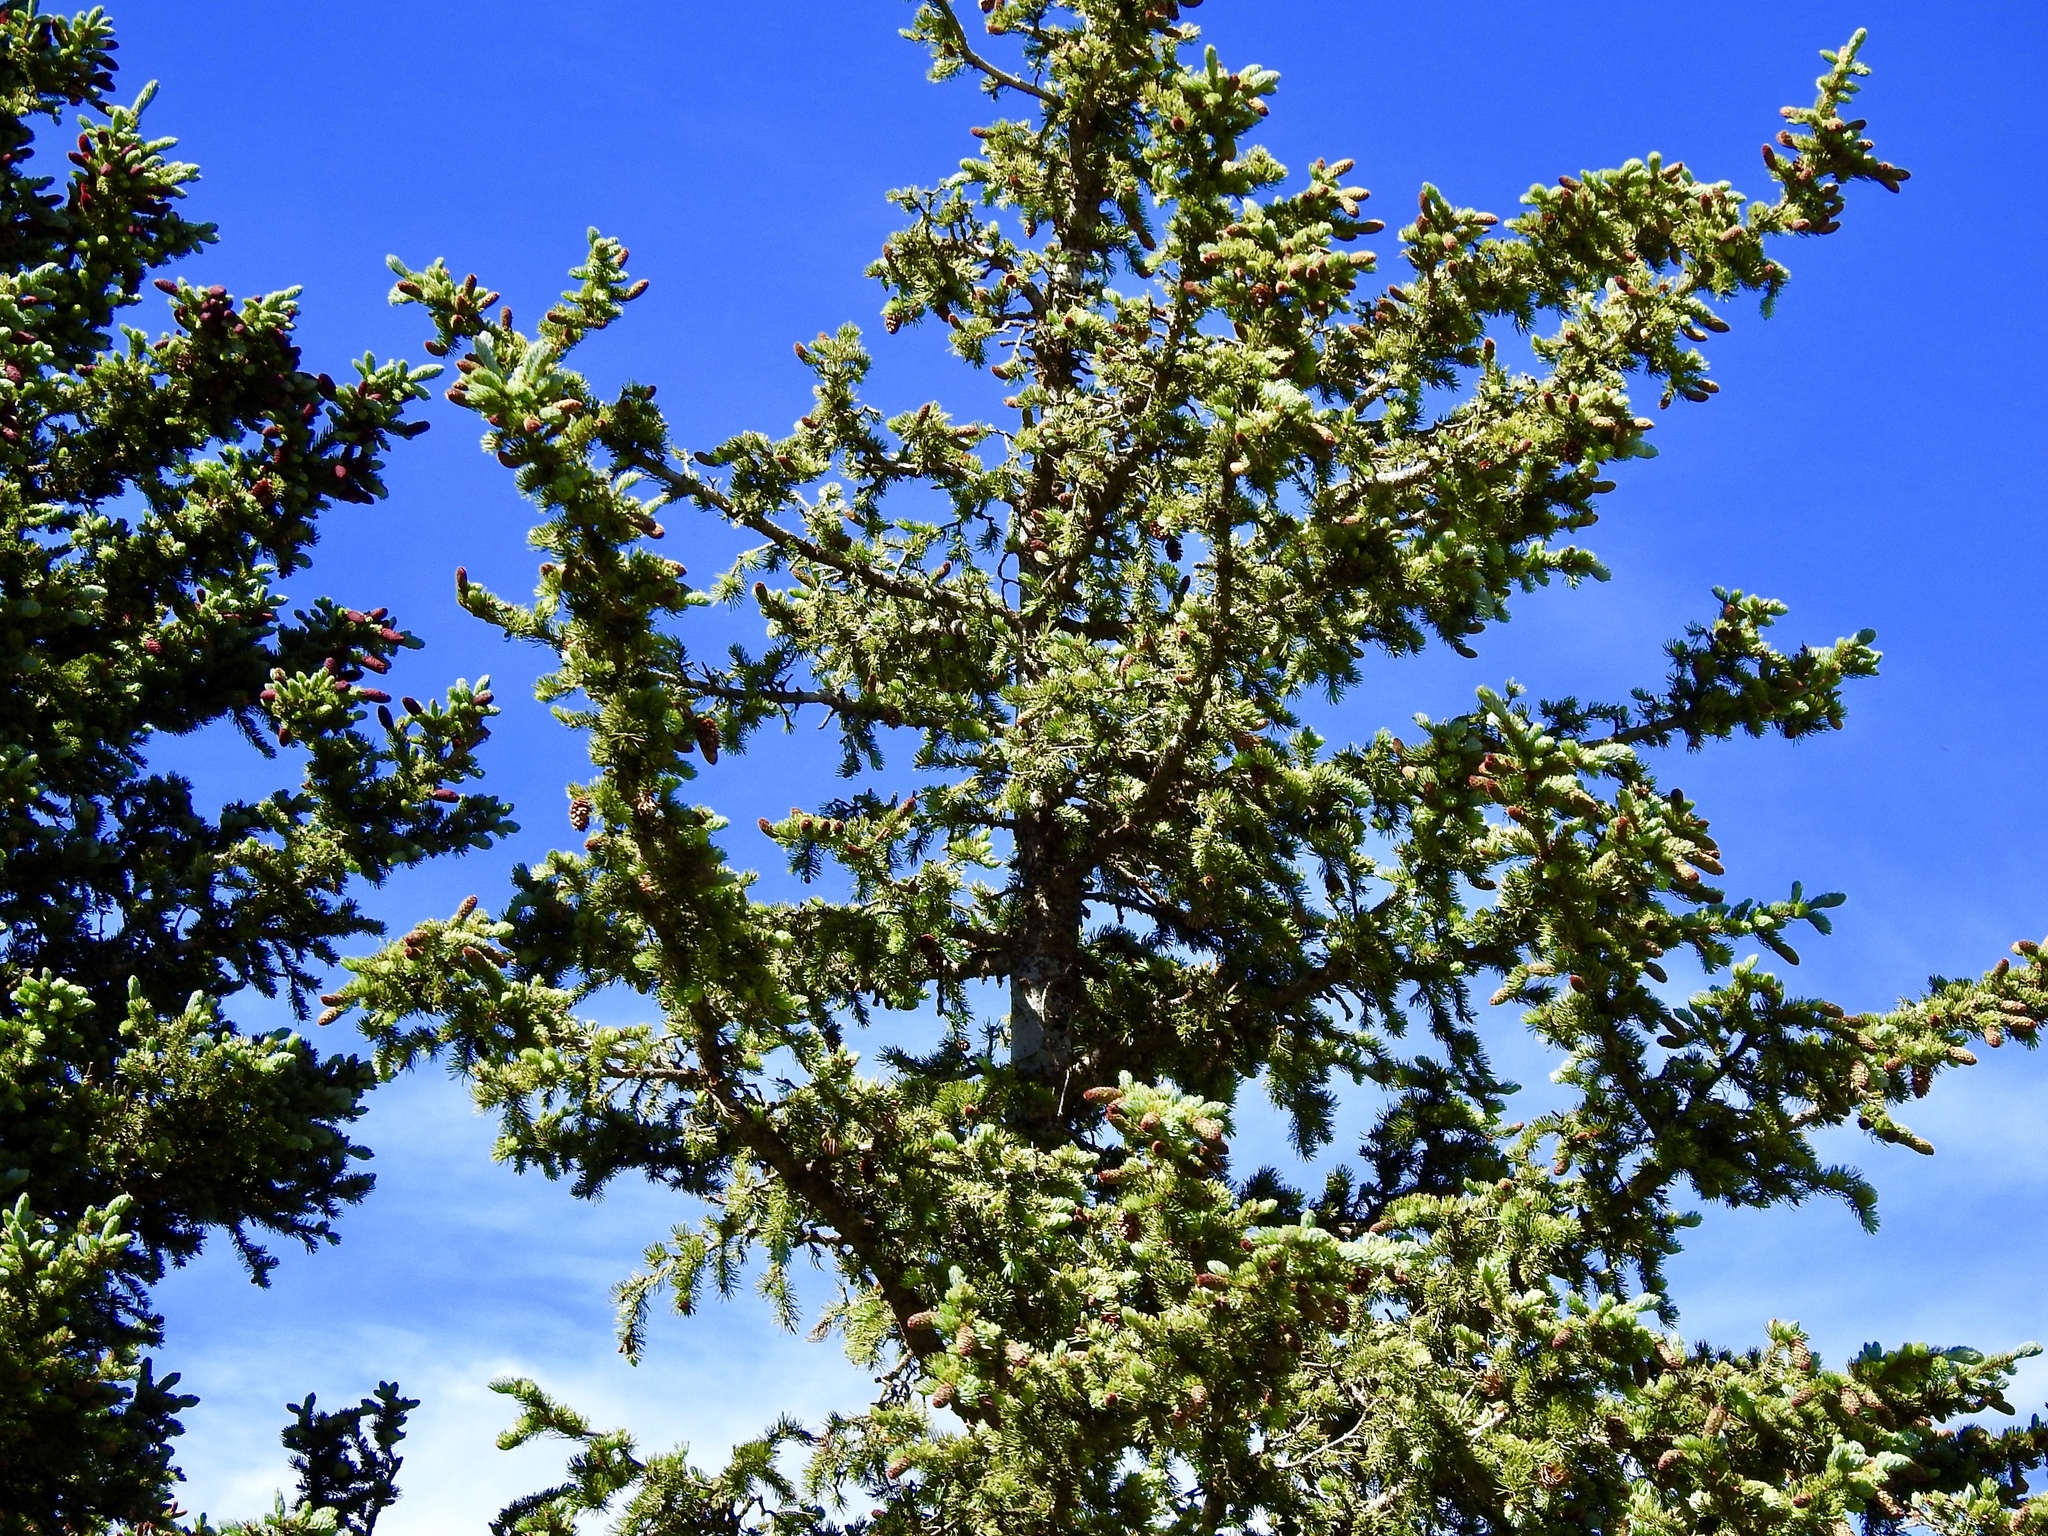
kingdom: Plantae
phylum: Tracheophyta
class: Pinopsida
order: Pinales
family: Pinaceae
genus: Picea
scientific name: Picea engelmannii
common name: Engelmann spruce
